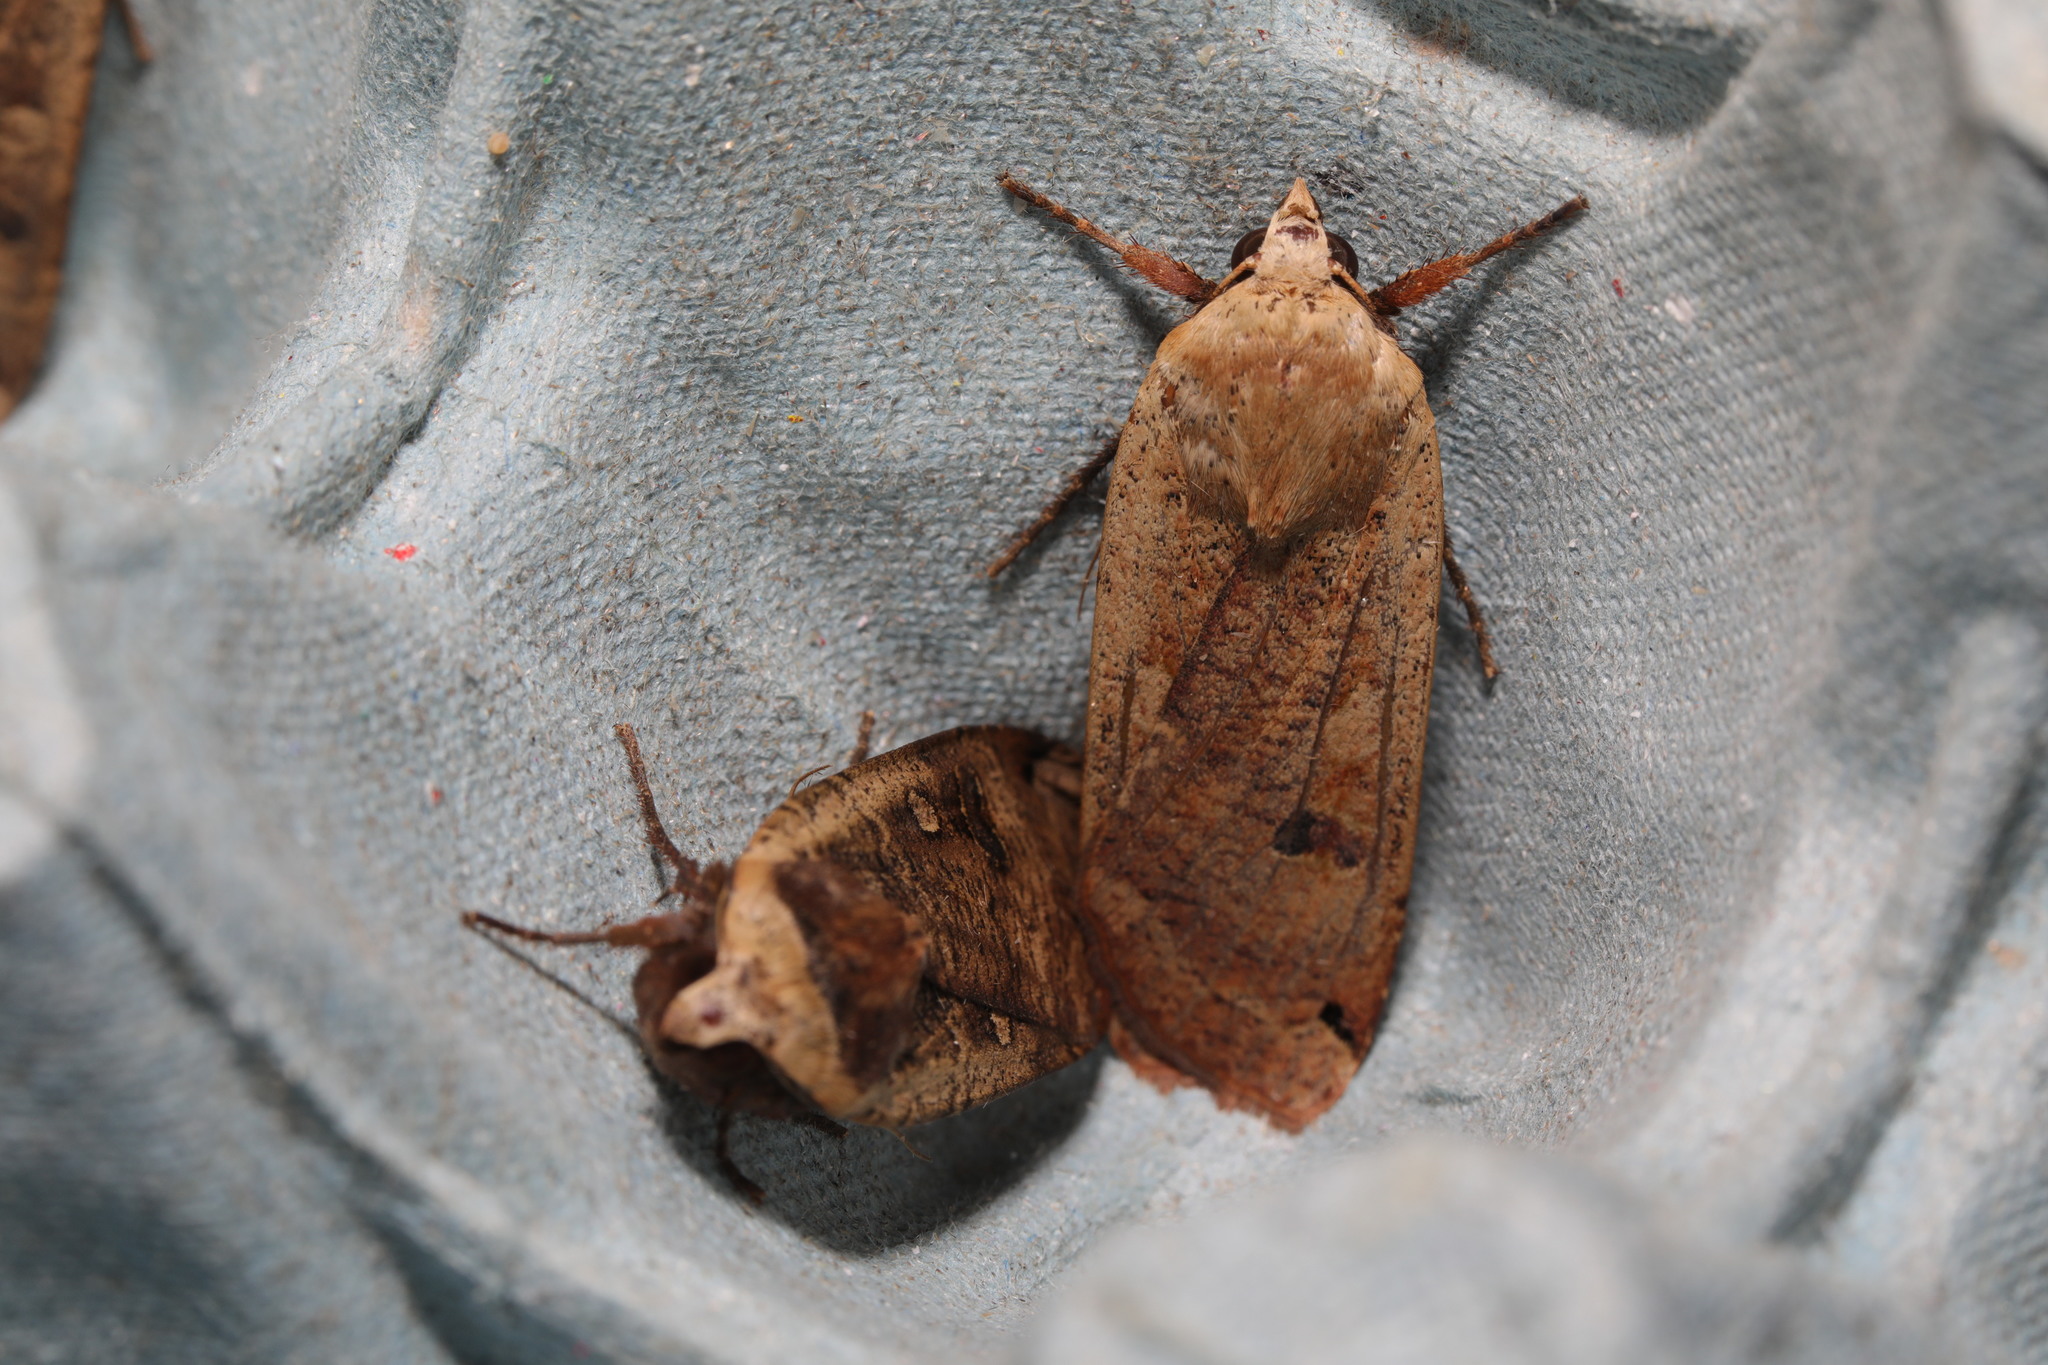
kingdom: Animalia
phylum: Arthropoda
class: Insecta
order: Lepidoptera
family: Noctuidae
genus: Noctua
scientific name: Noctua pronuba
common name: Large yellow underwing
